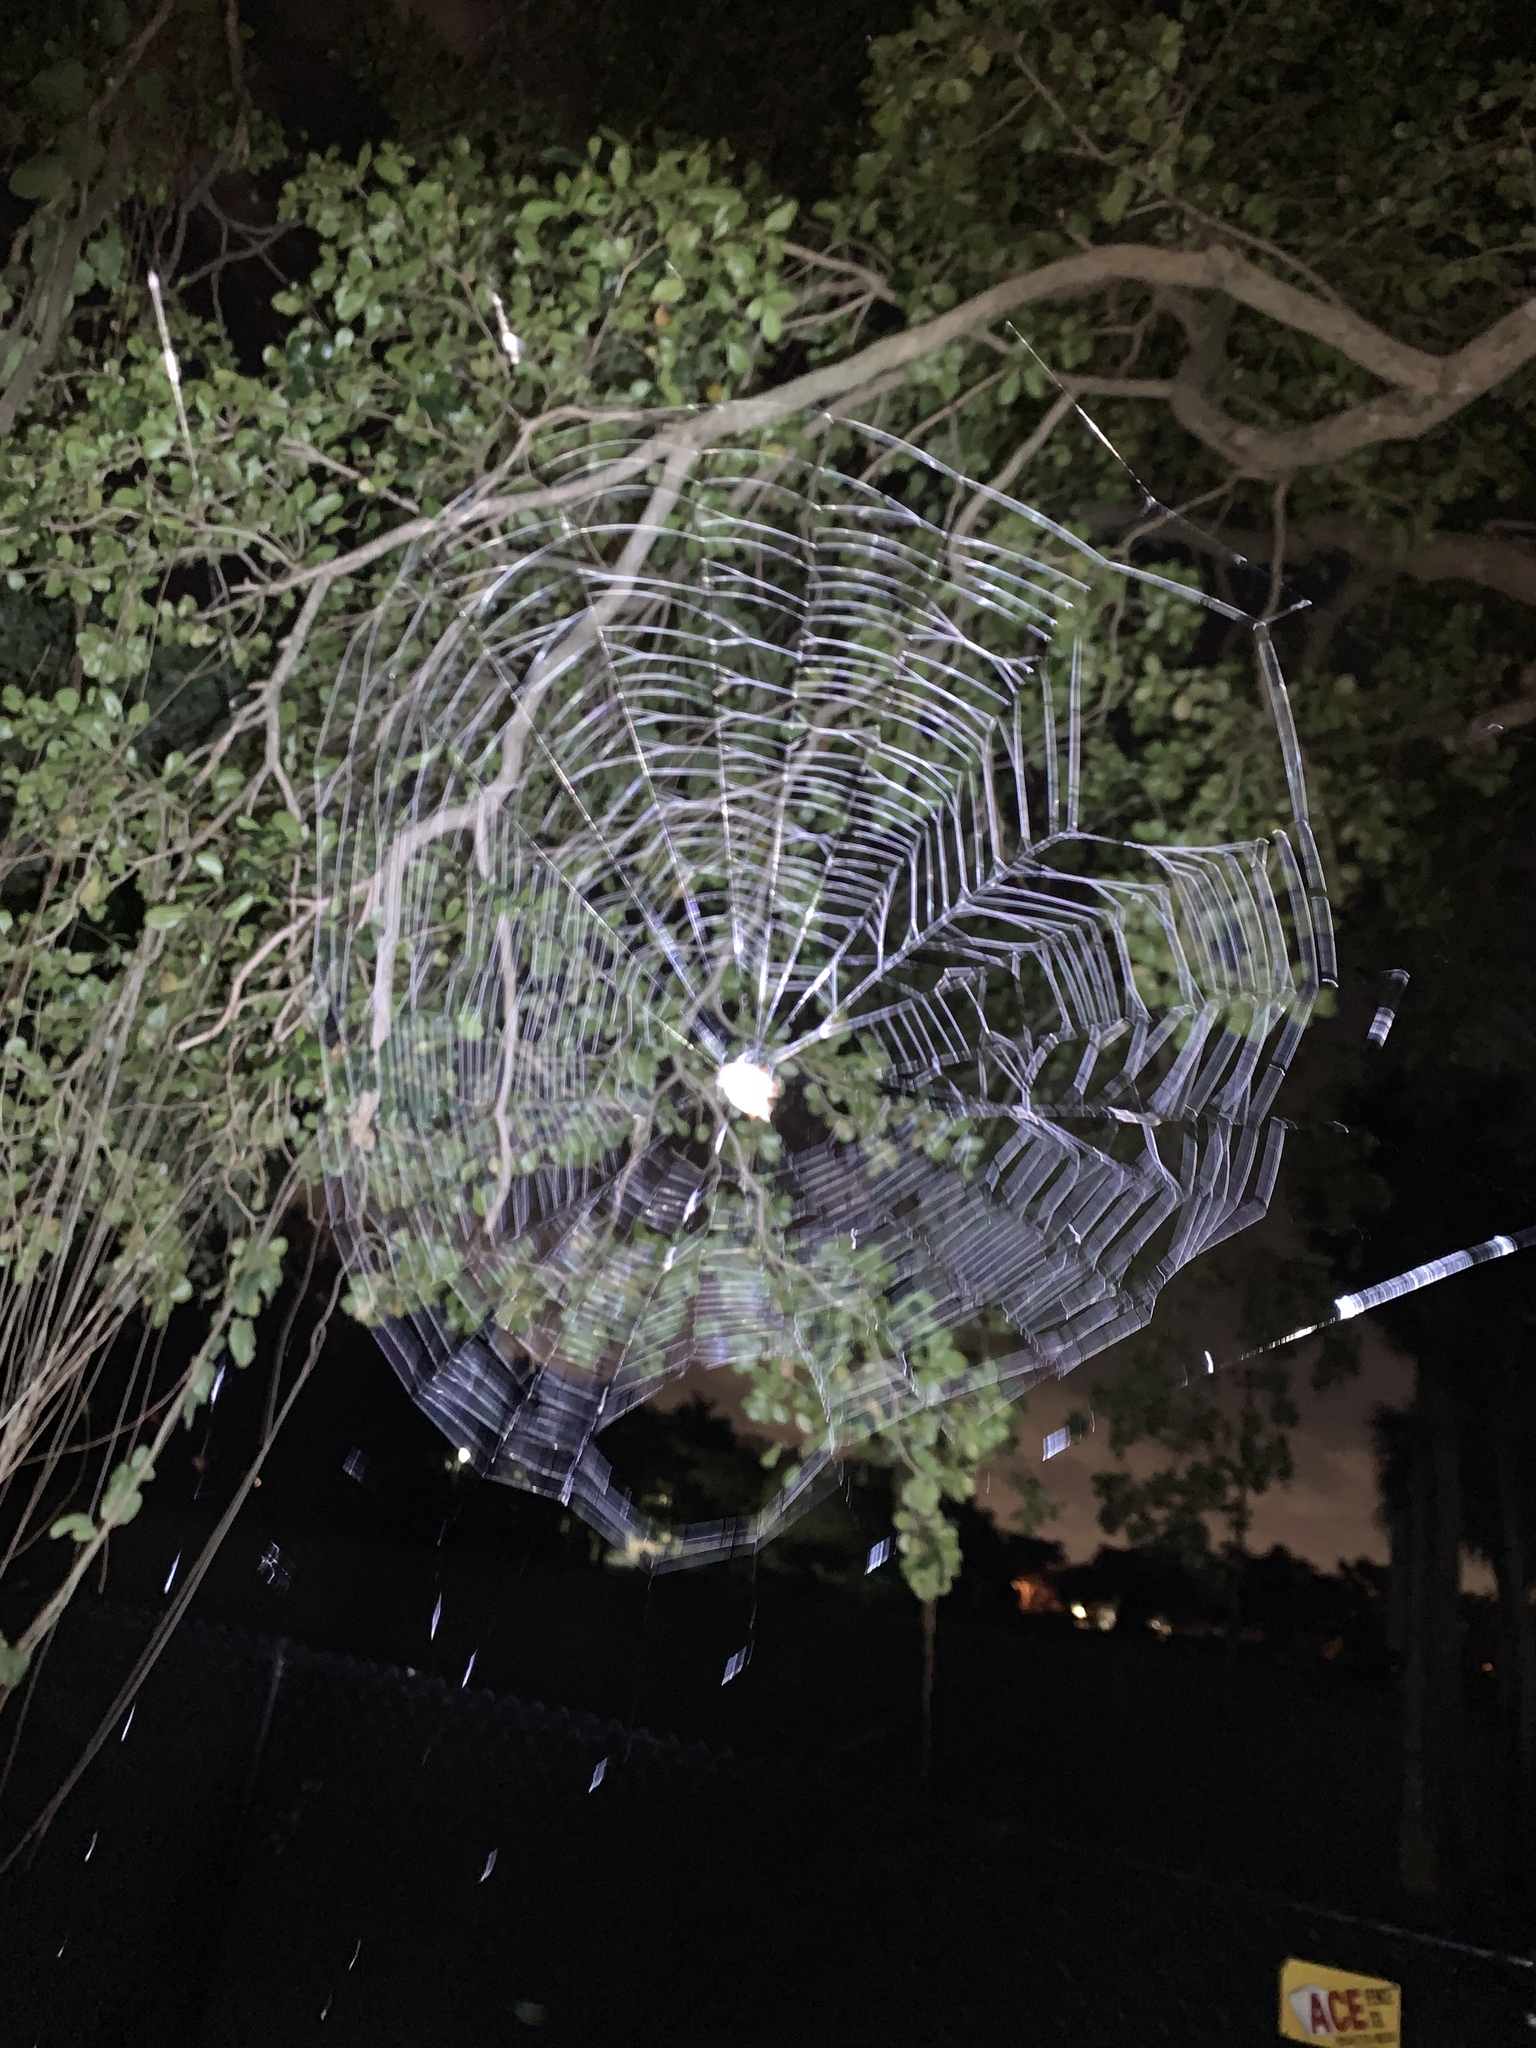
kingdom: Animalia
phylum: Arthropoda
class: Arachnida
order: Araneae
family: Araneidae
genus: Gasteracantha
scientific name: Gasteracantha cancriformis
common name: Orb weavers
